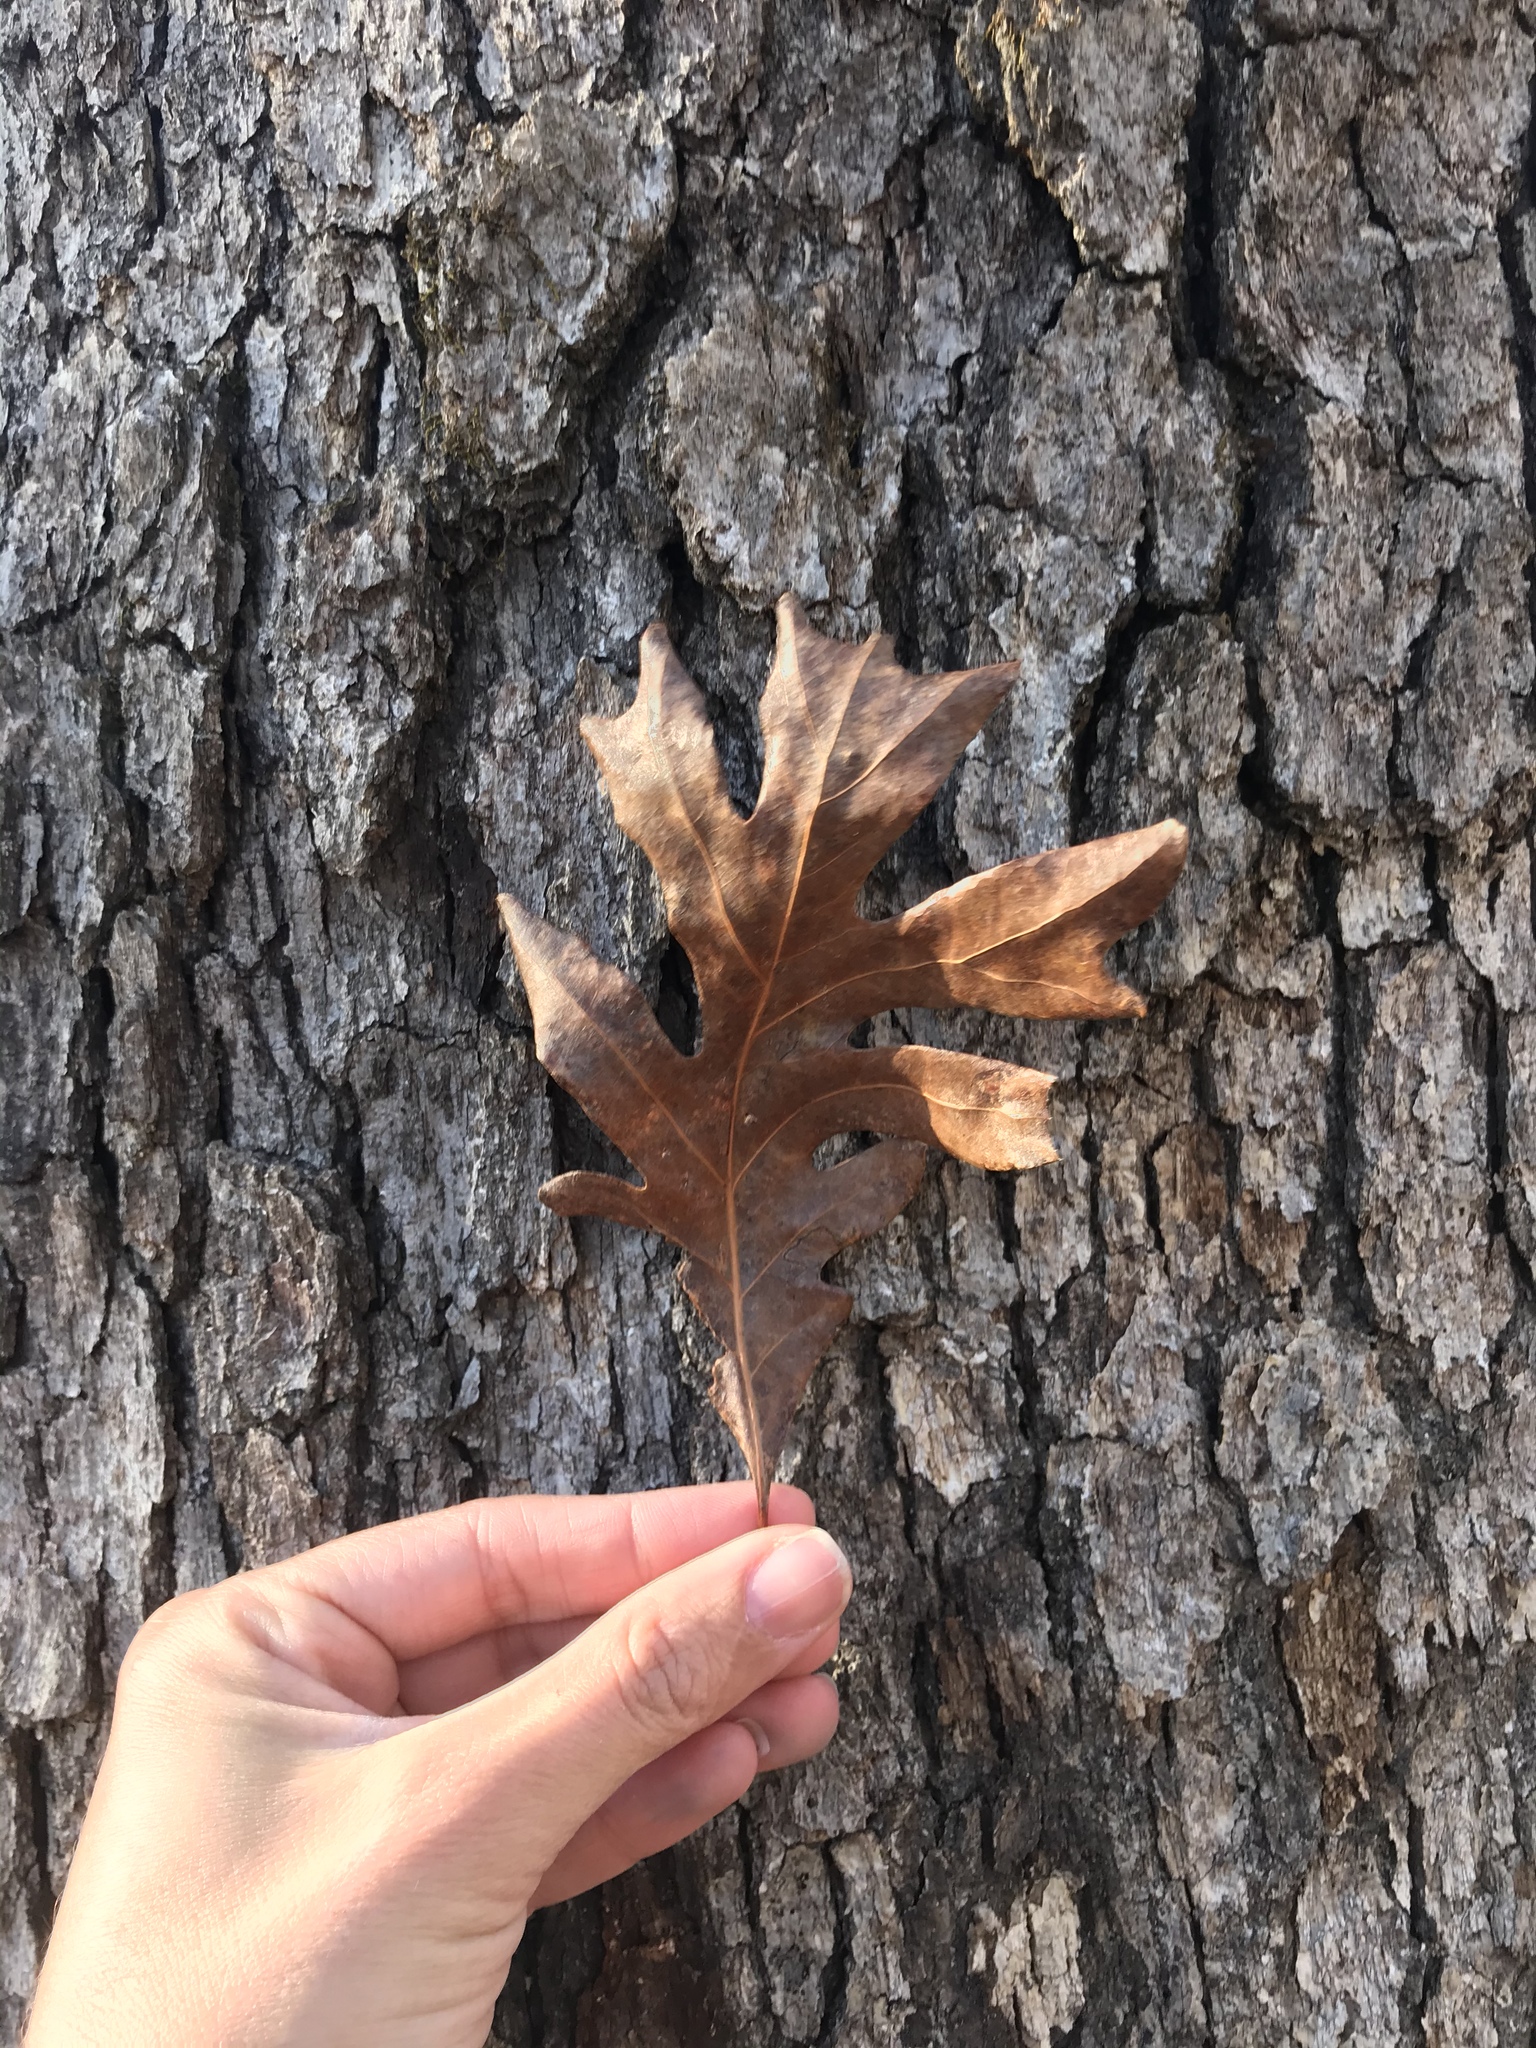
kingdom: Plantae
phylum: Tracheophyta
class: Magnoliopsida
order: Fagales
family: Fagaceae
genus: Quercus
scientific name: Quercus alba
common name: White oak
